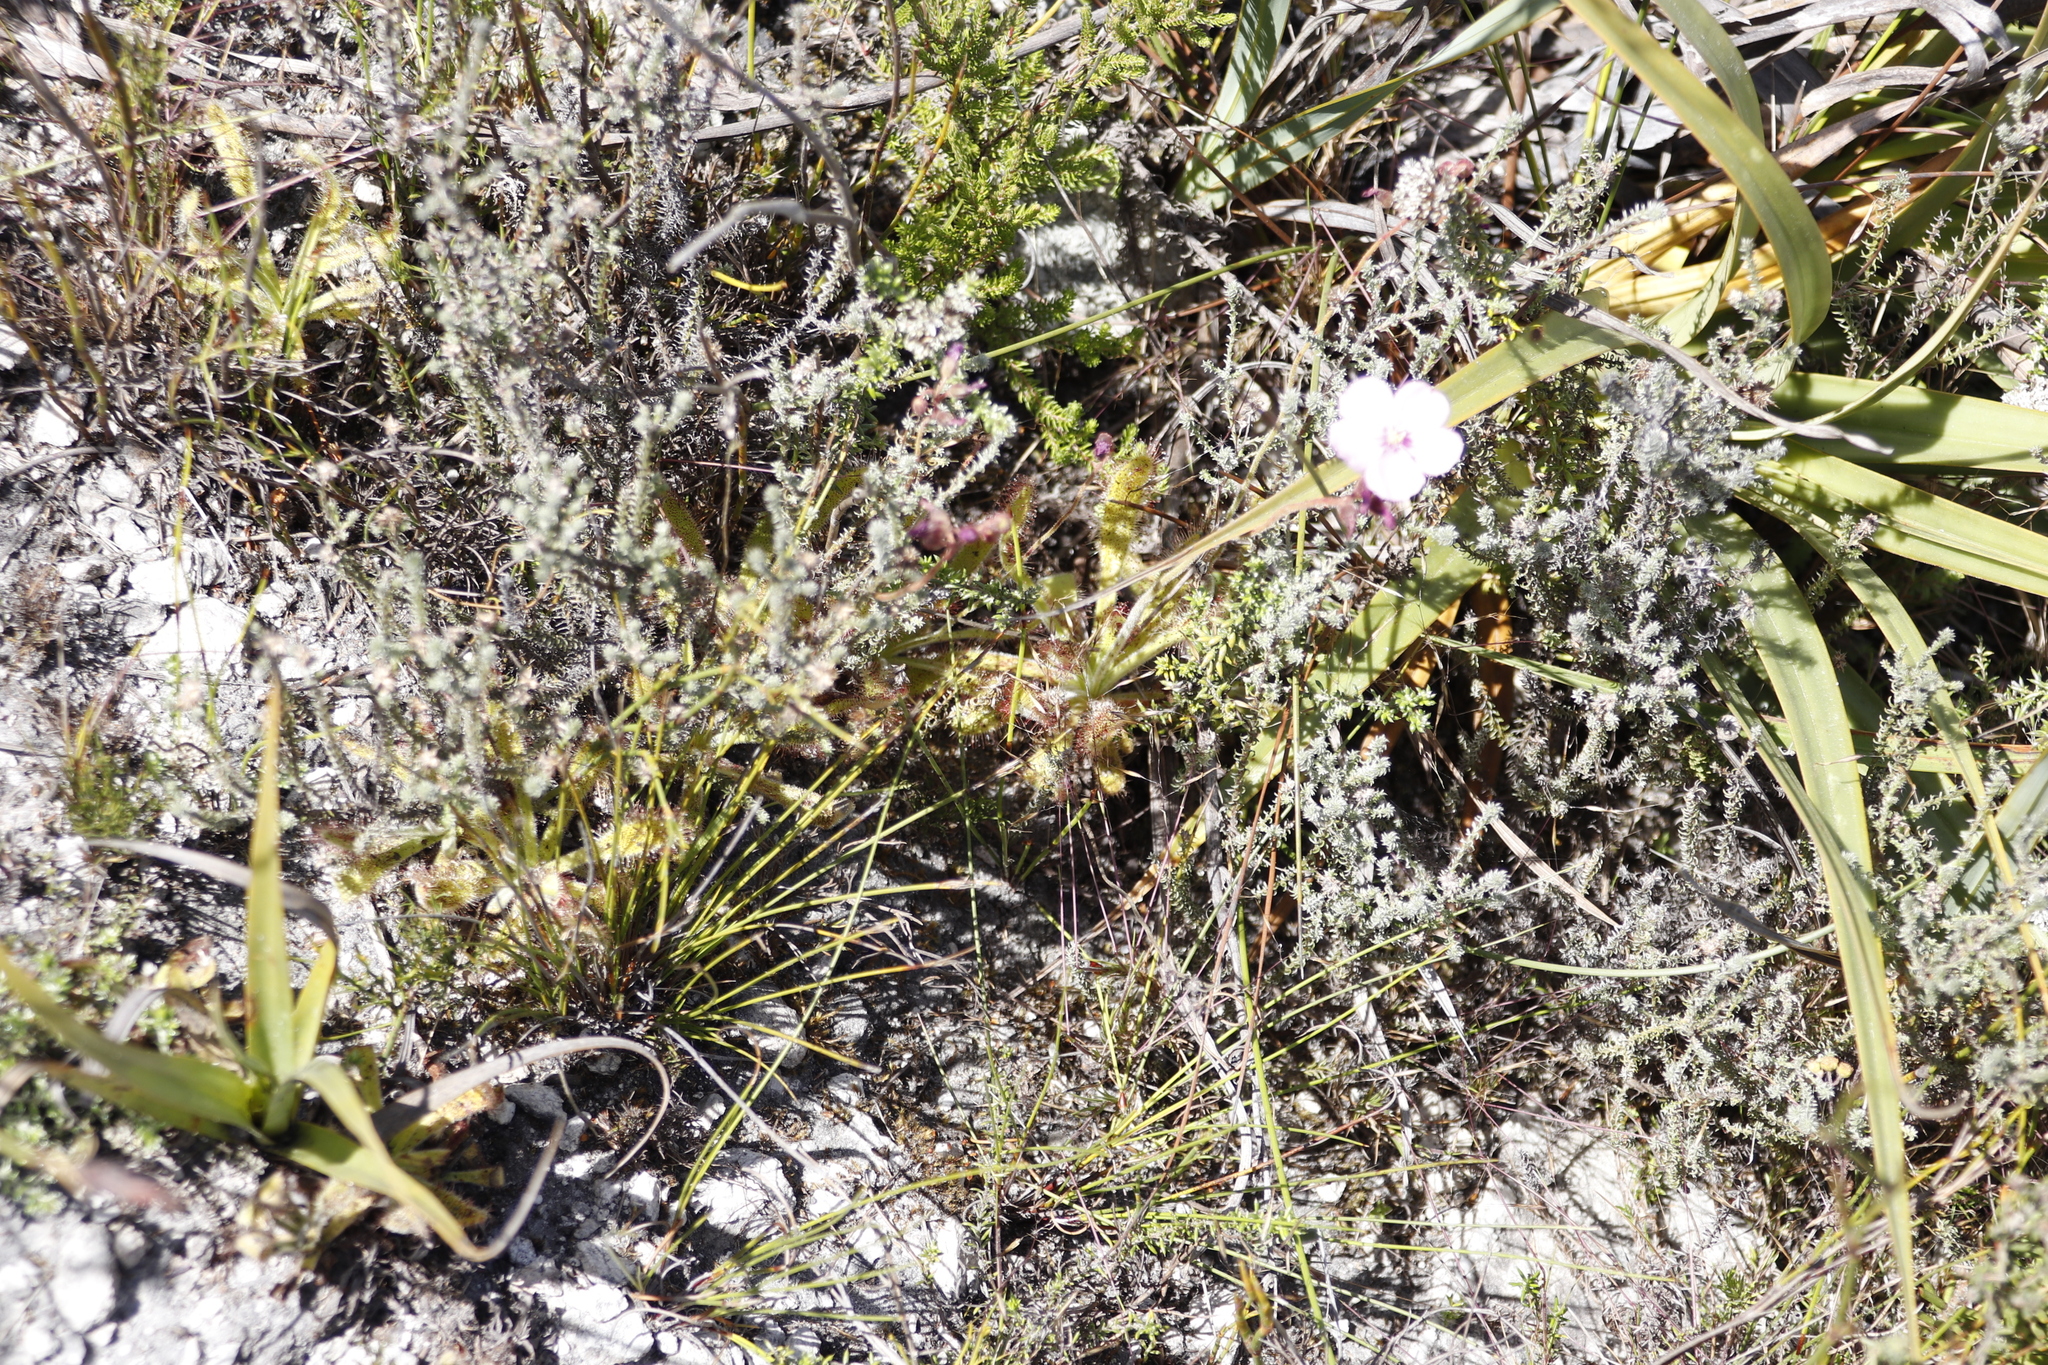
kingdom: Plantae
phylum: Tracheophyta
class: Magnoliopsida
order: Caryophyllales
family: Droseraceae
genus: Drosera
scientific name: Drosera hilaris
